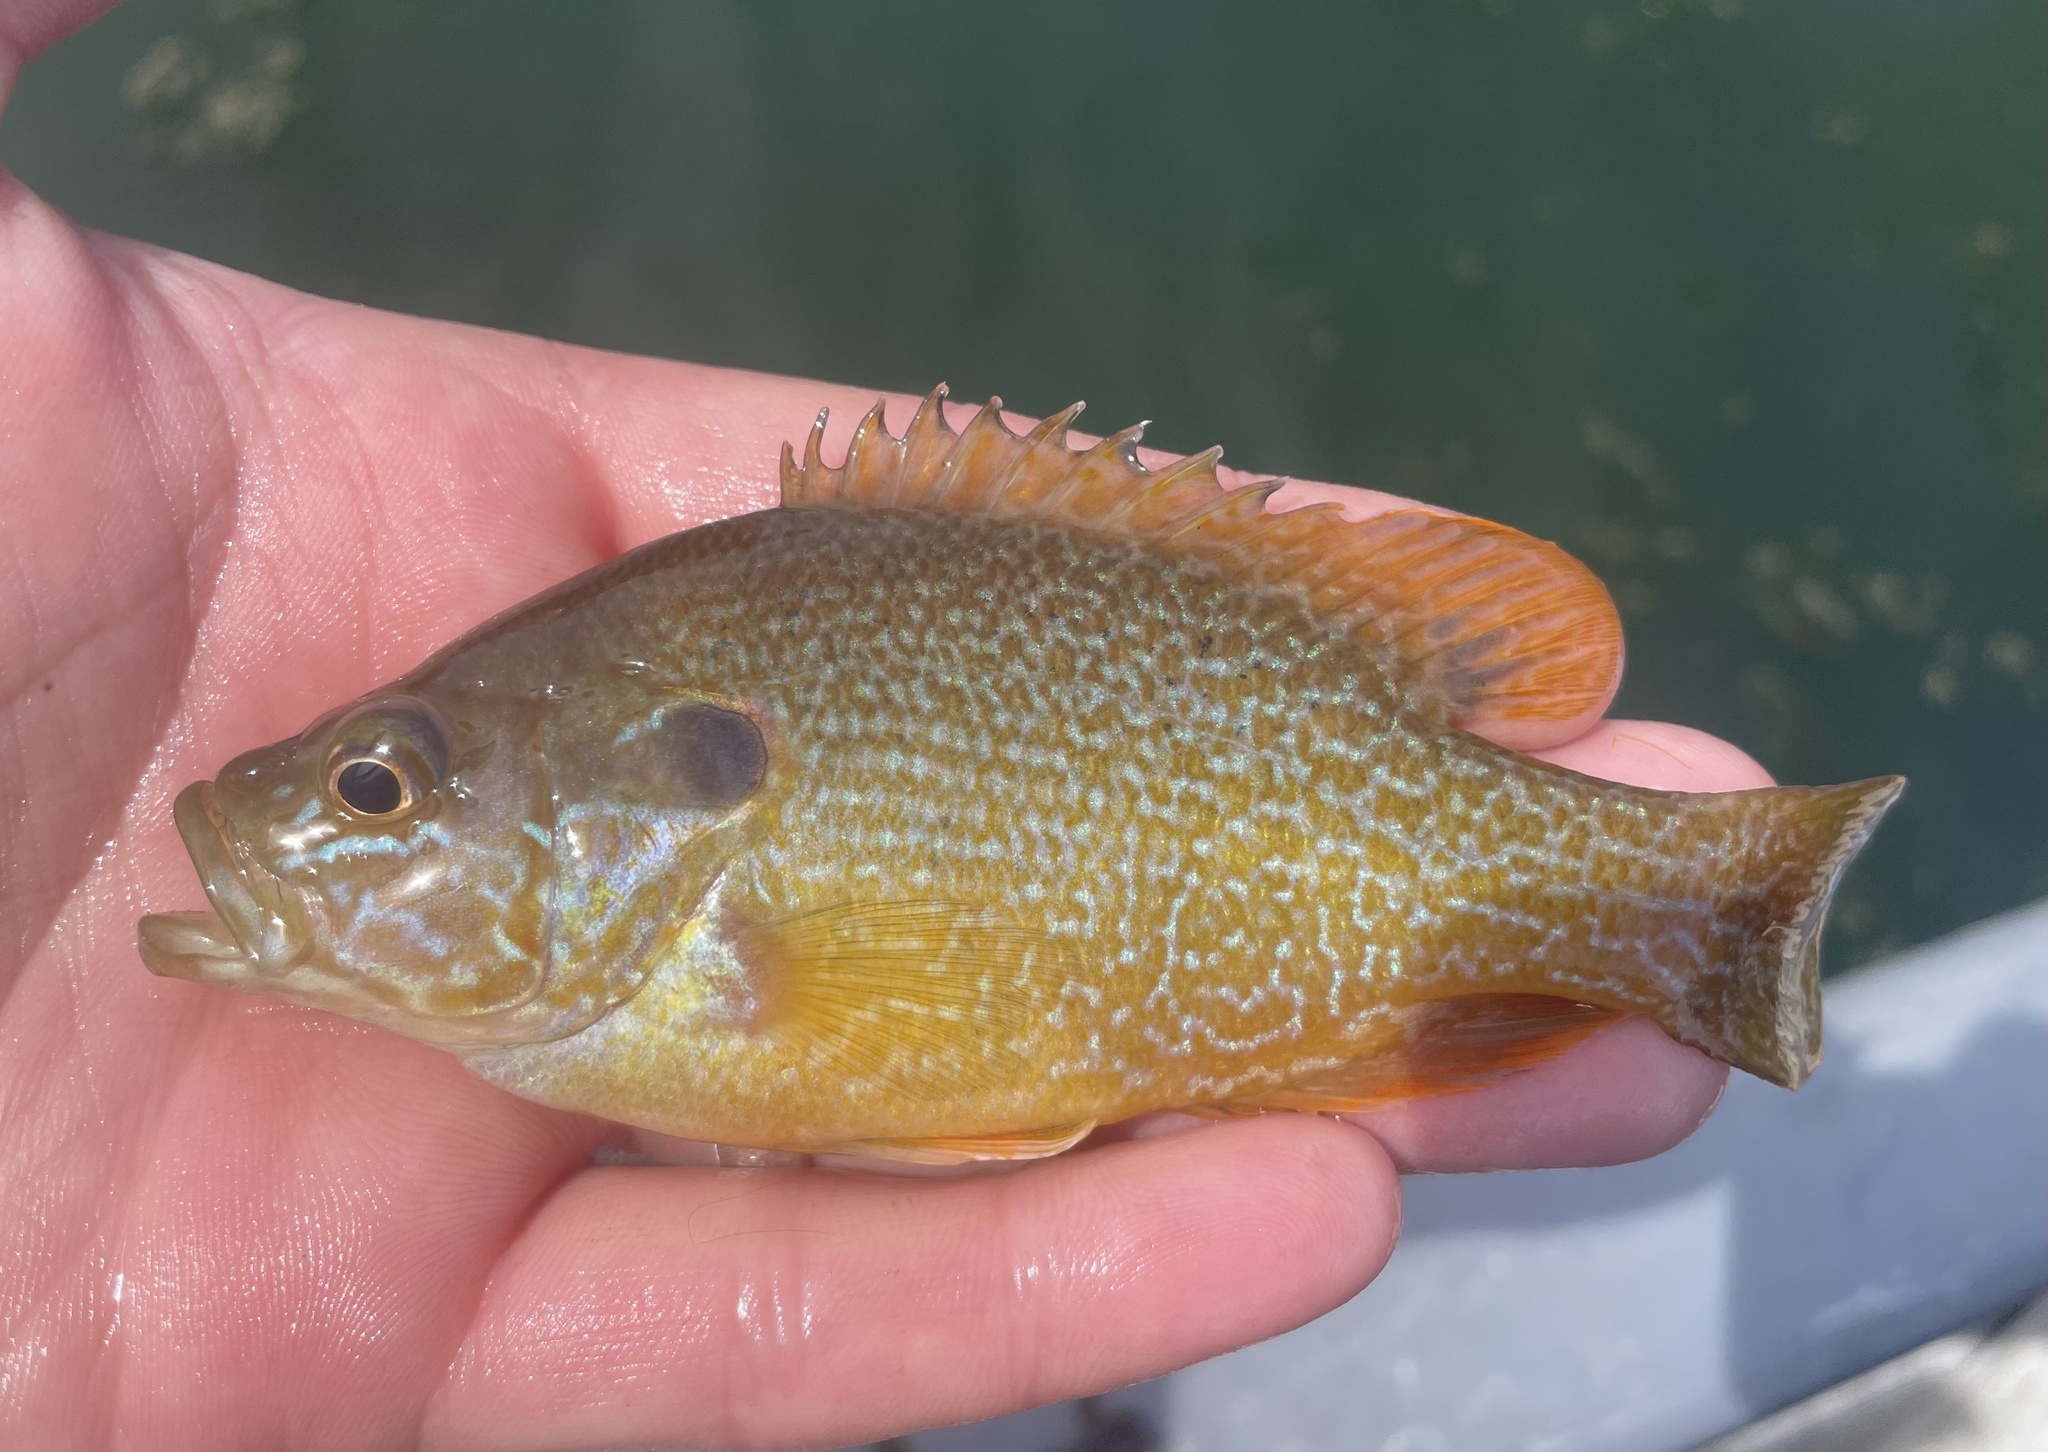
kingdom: Animalia
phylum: Chordata
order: Perciformes
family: Centrarchidae
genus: Lepomis
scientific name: Lepomis cyanellus
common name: Green sunfish
